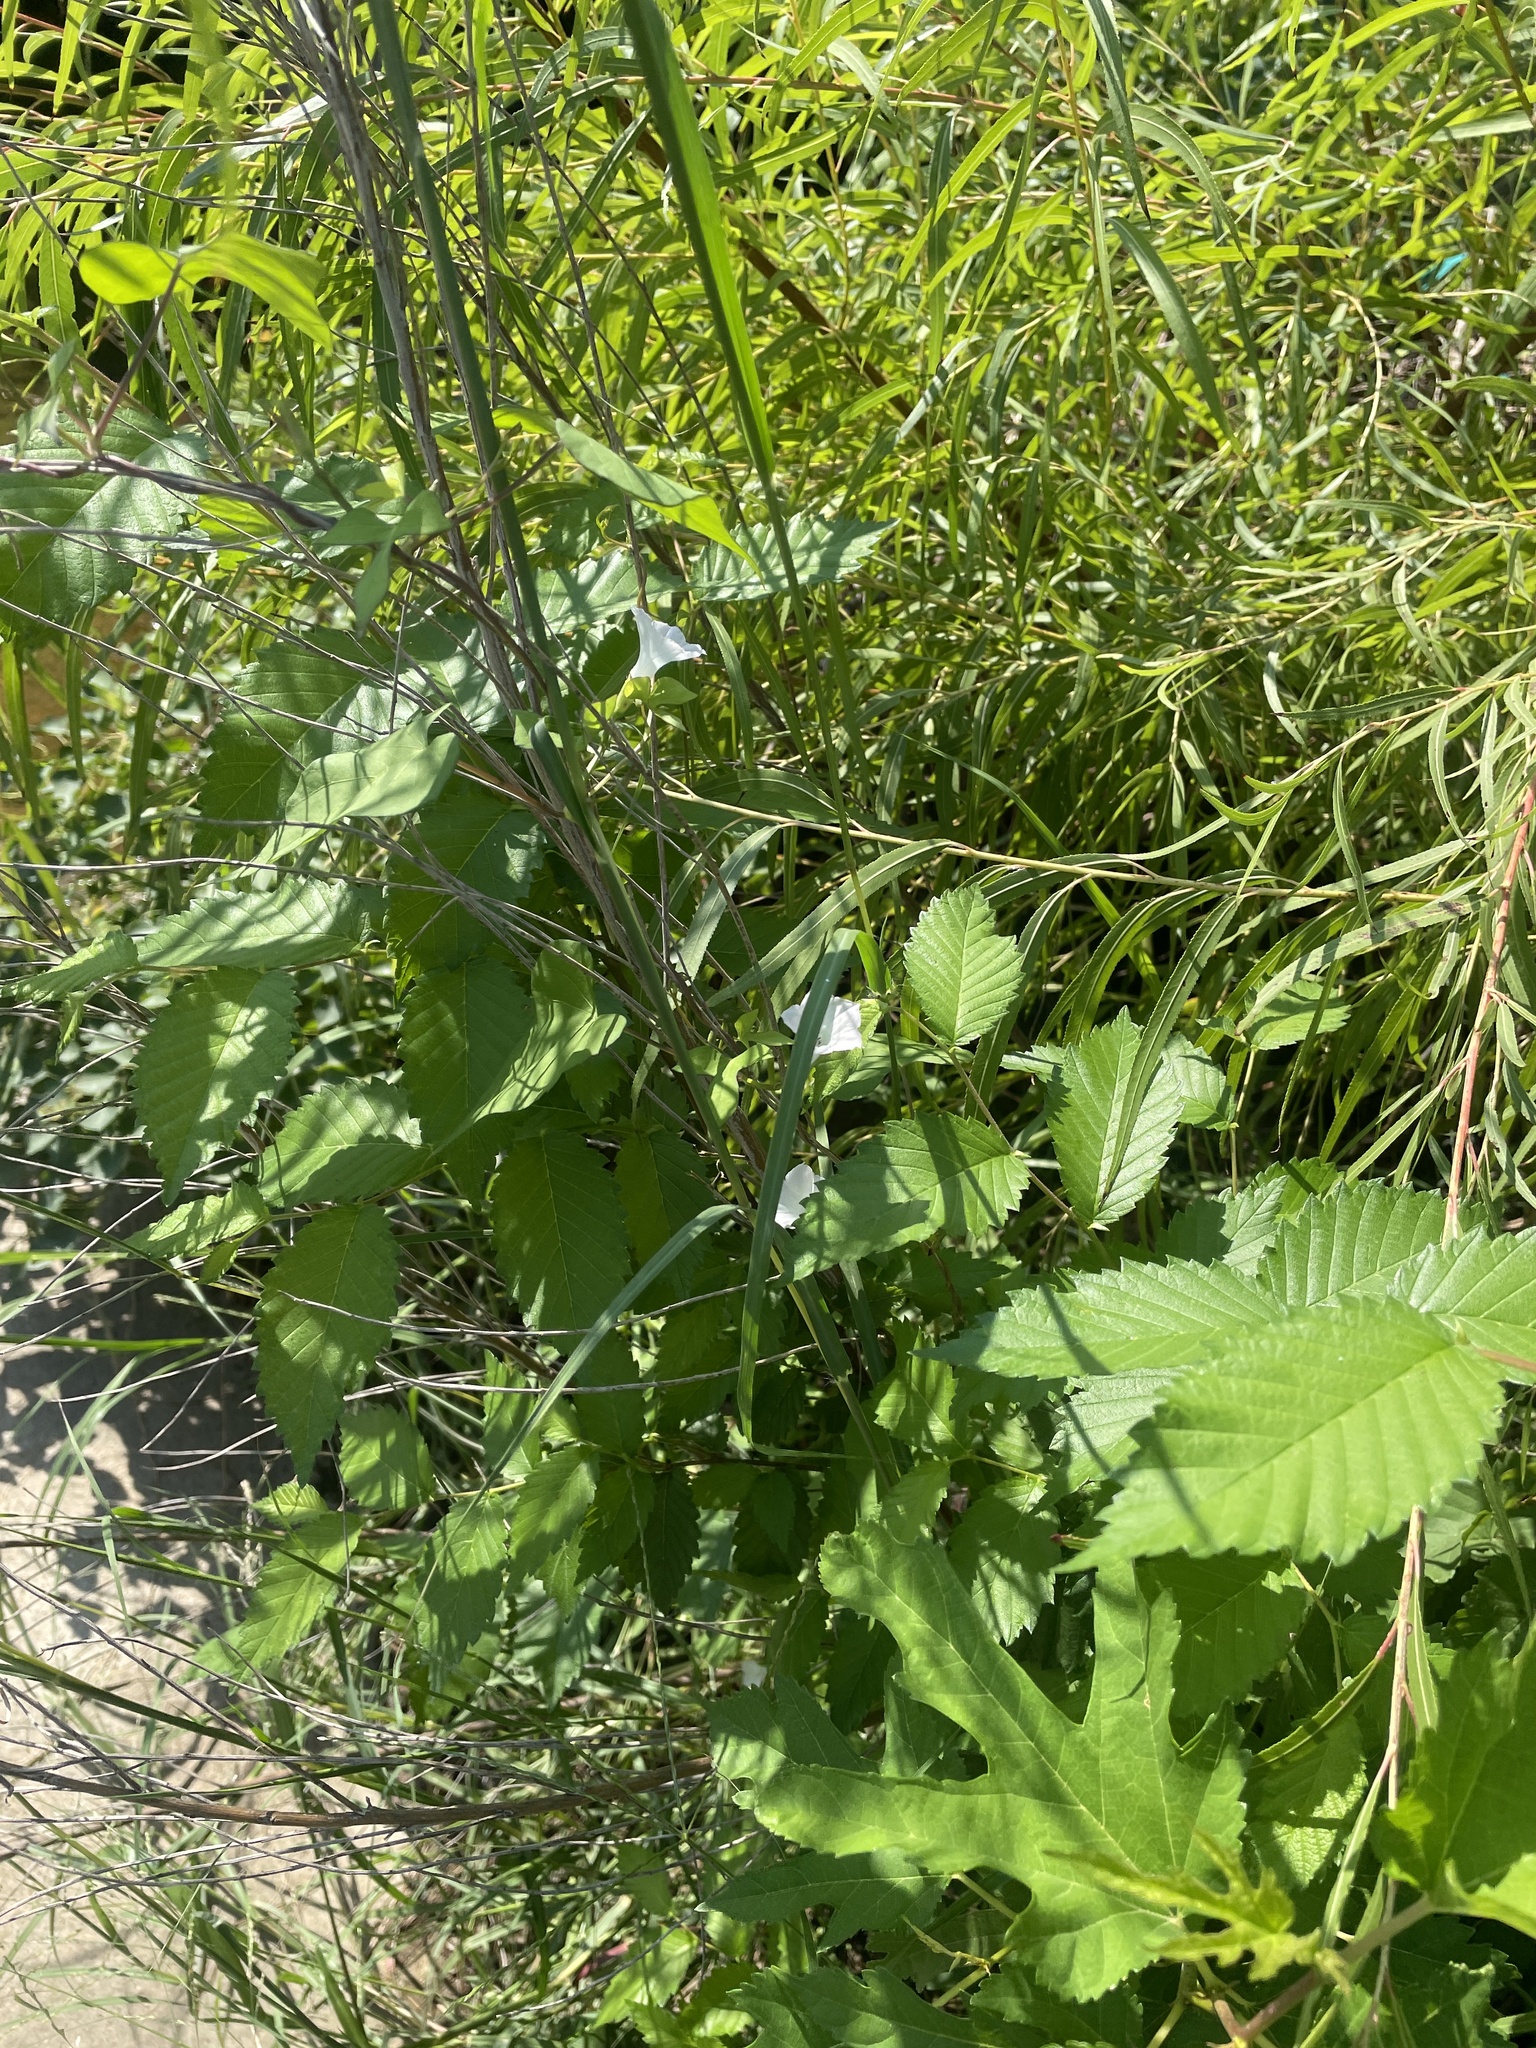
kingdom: Plantae
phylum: Tracheophyta
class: Magnoliopsida
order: Solanales
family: Convolvulaceae
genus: Ipomoea
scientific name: Ipomoea lacunosa
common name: White morning-glory
